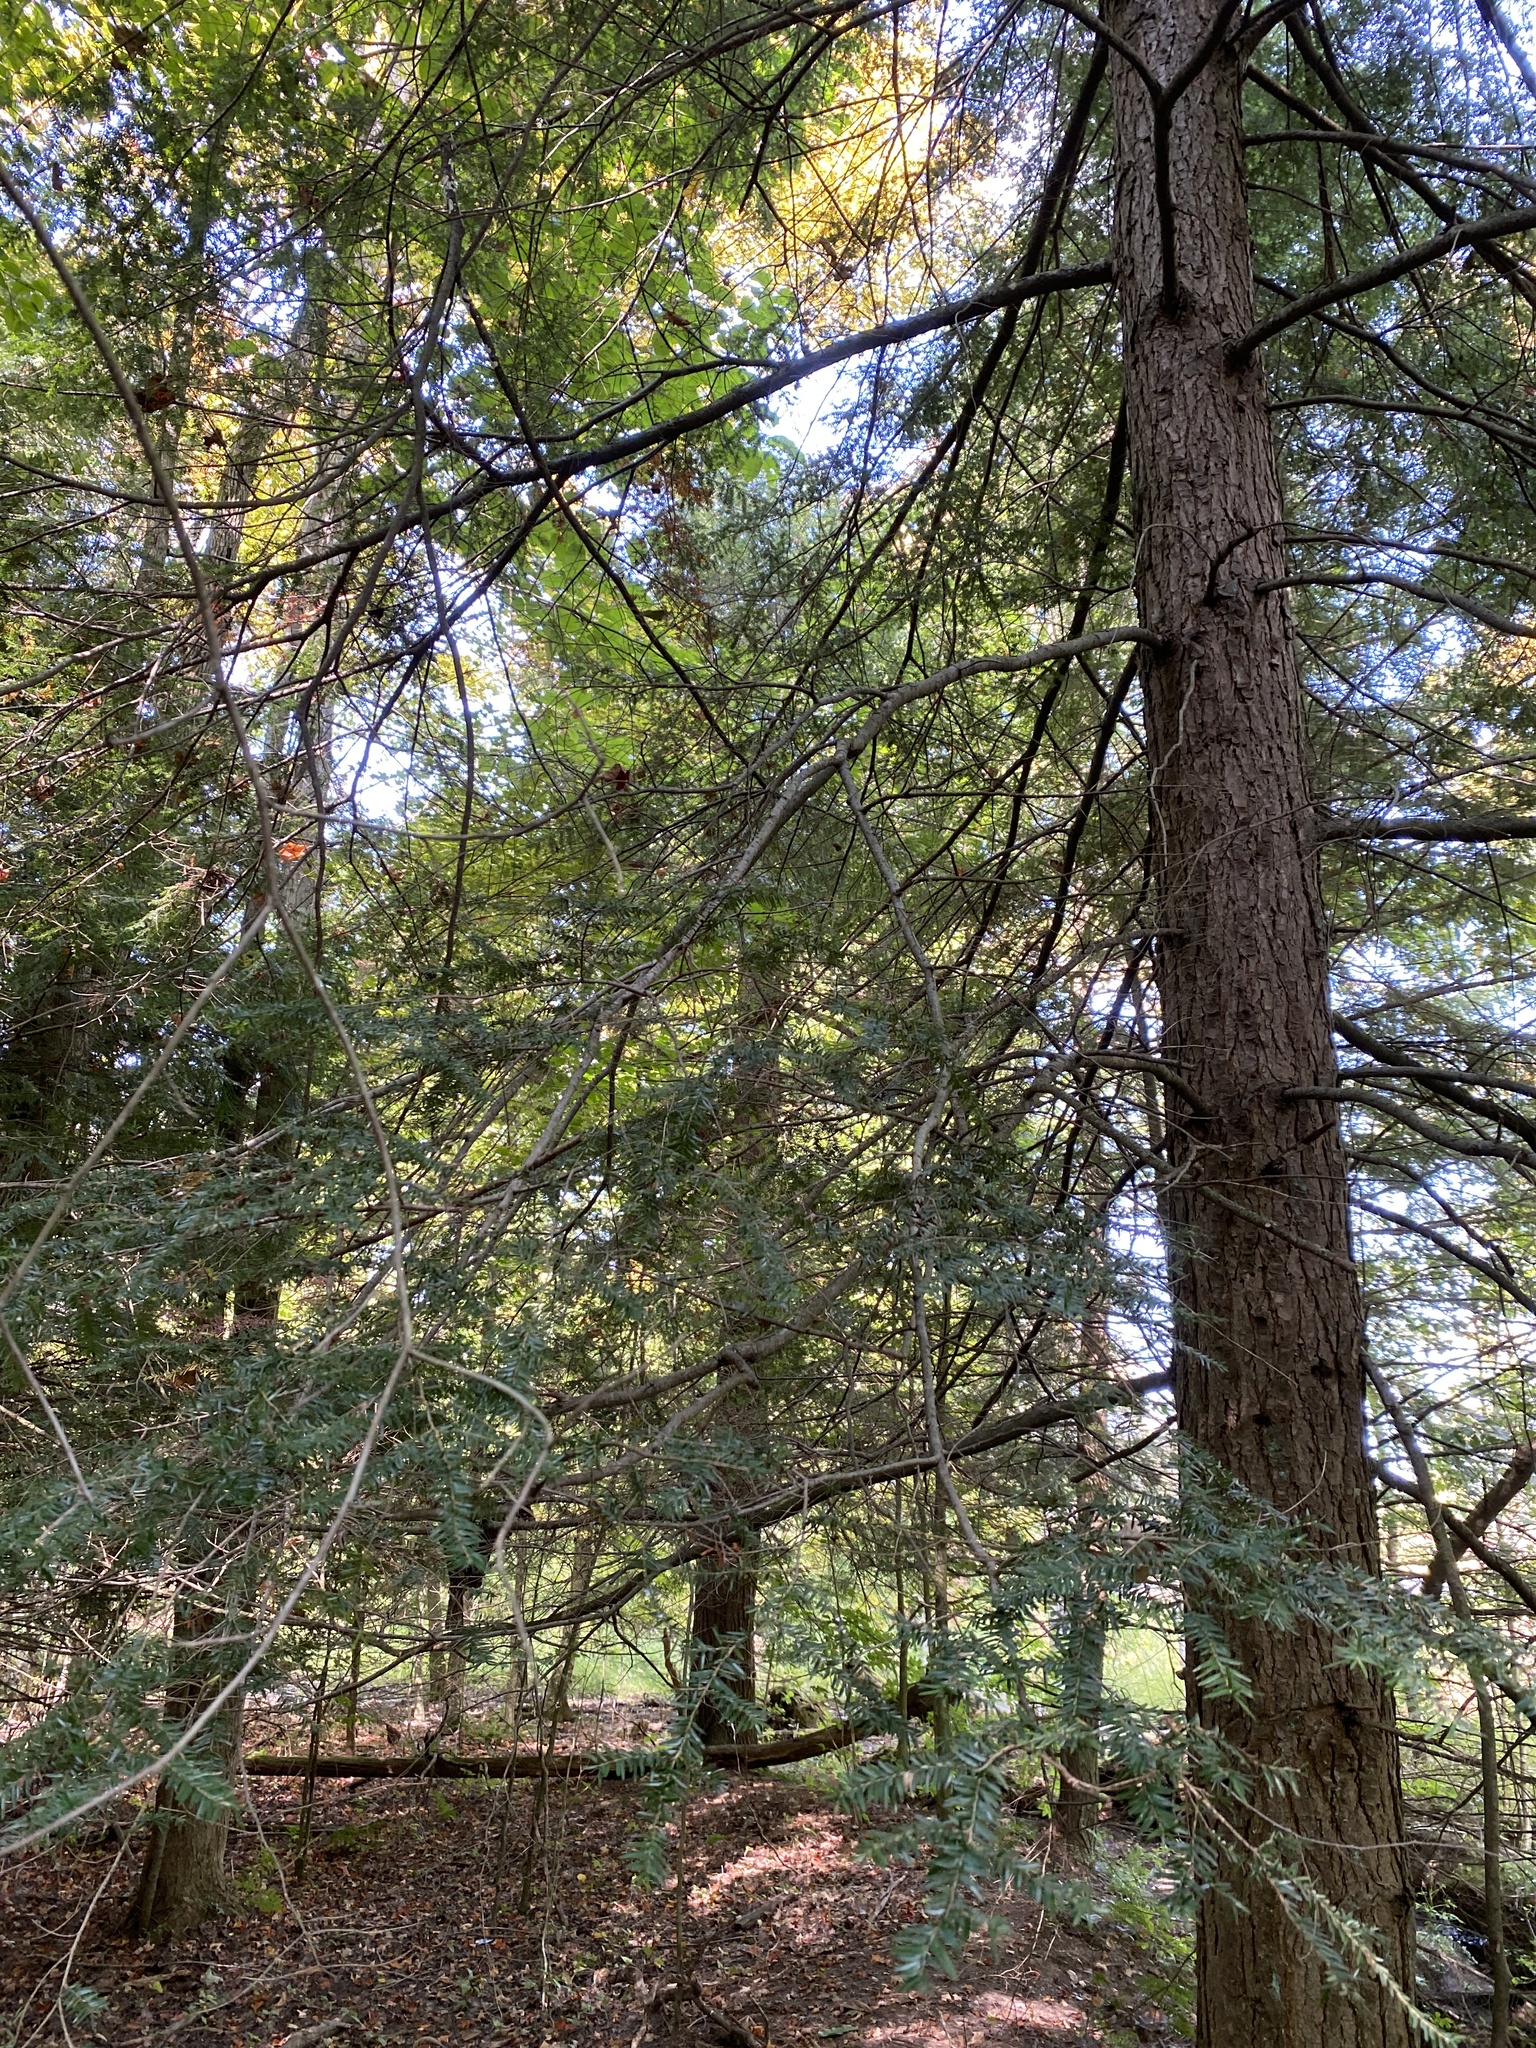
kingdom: Plantae
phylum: Tracheophyta
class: Pinopsida
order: Pinales
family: Pinaceae
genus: Tsuga
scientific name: Tsuga canadensis
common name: Eastern hemlock
